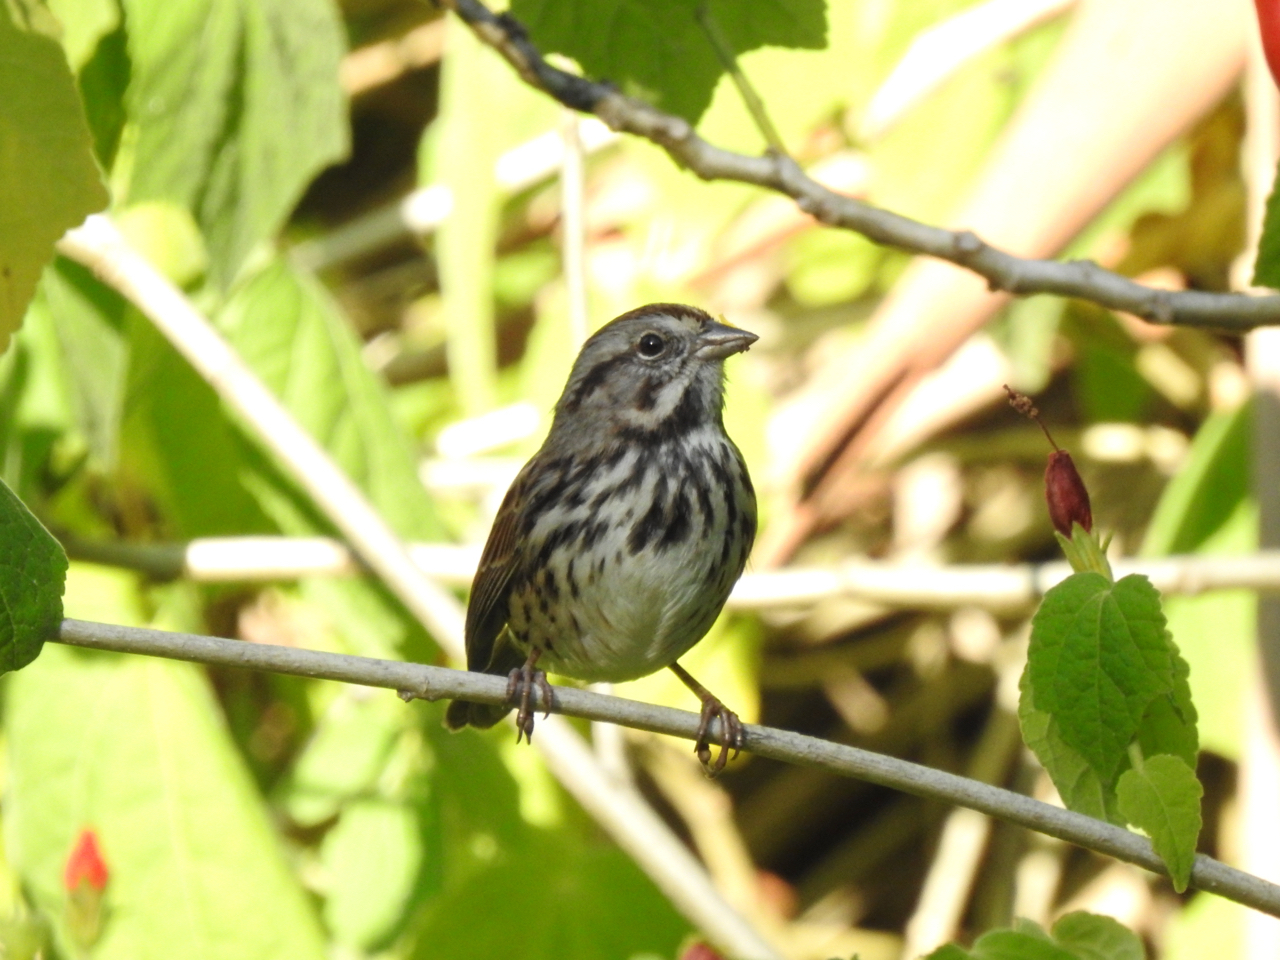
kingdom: Animalia
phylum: Chordata
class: Aves
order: Passeriformes
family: Passerellidae
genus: Melospiza
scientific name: Melospiza melodia
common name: Song sparrow
